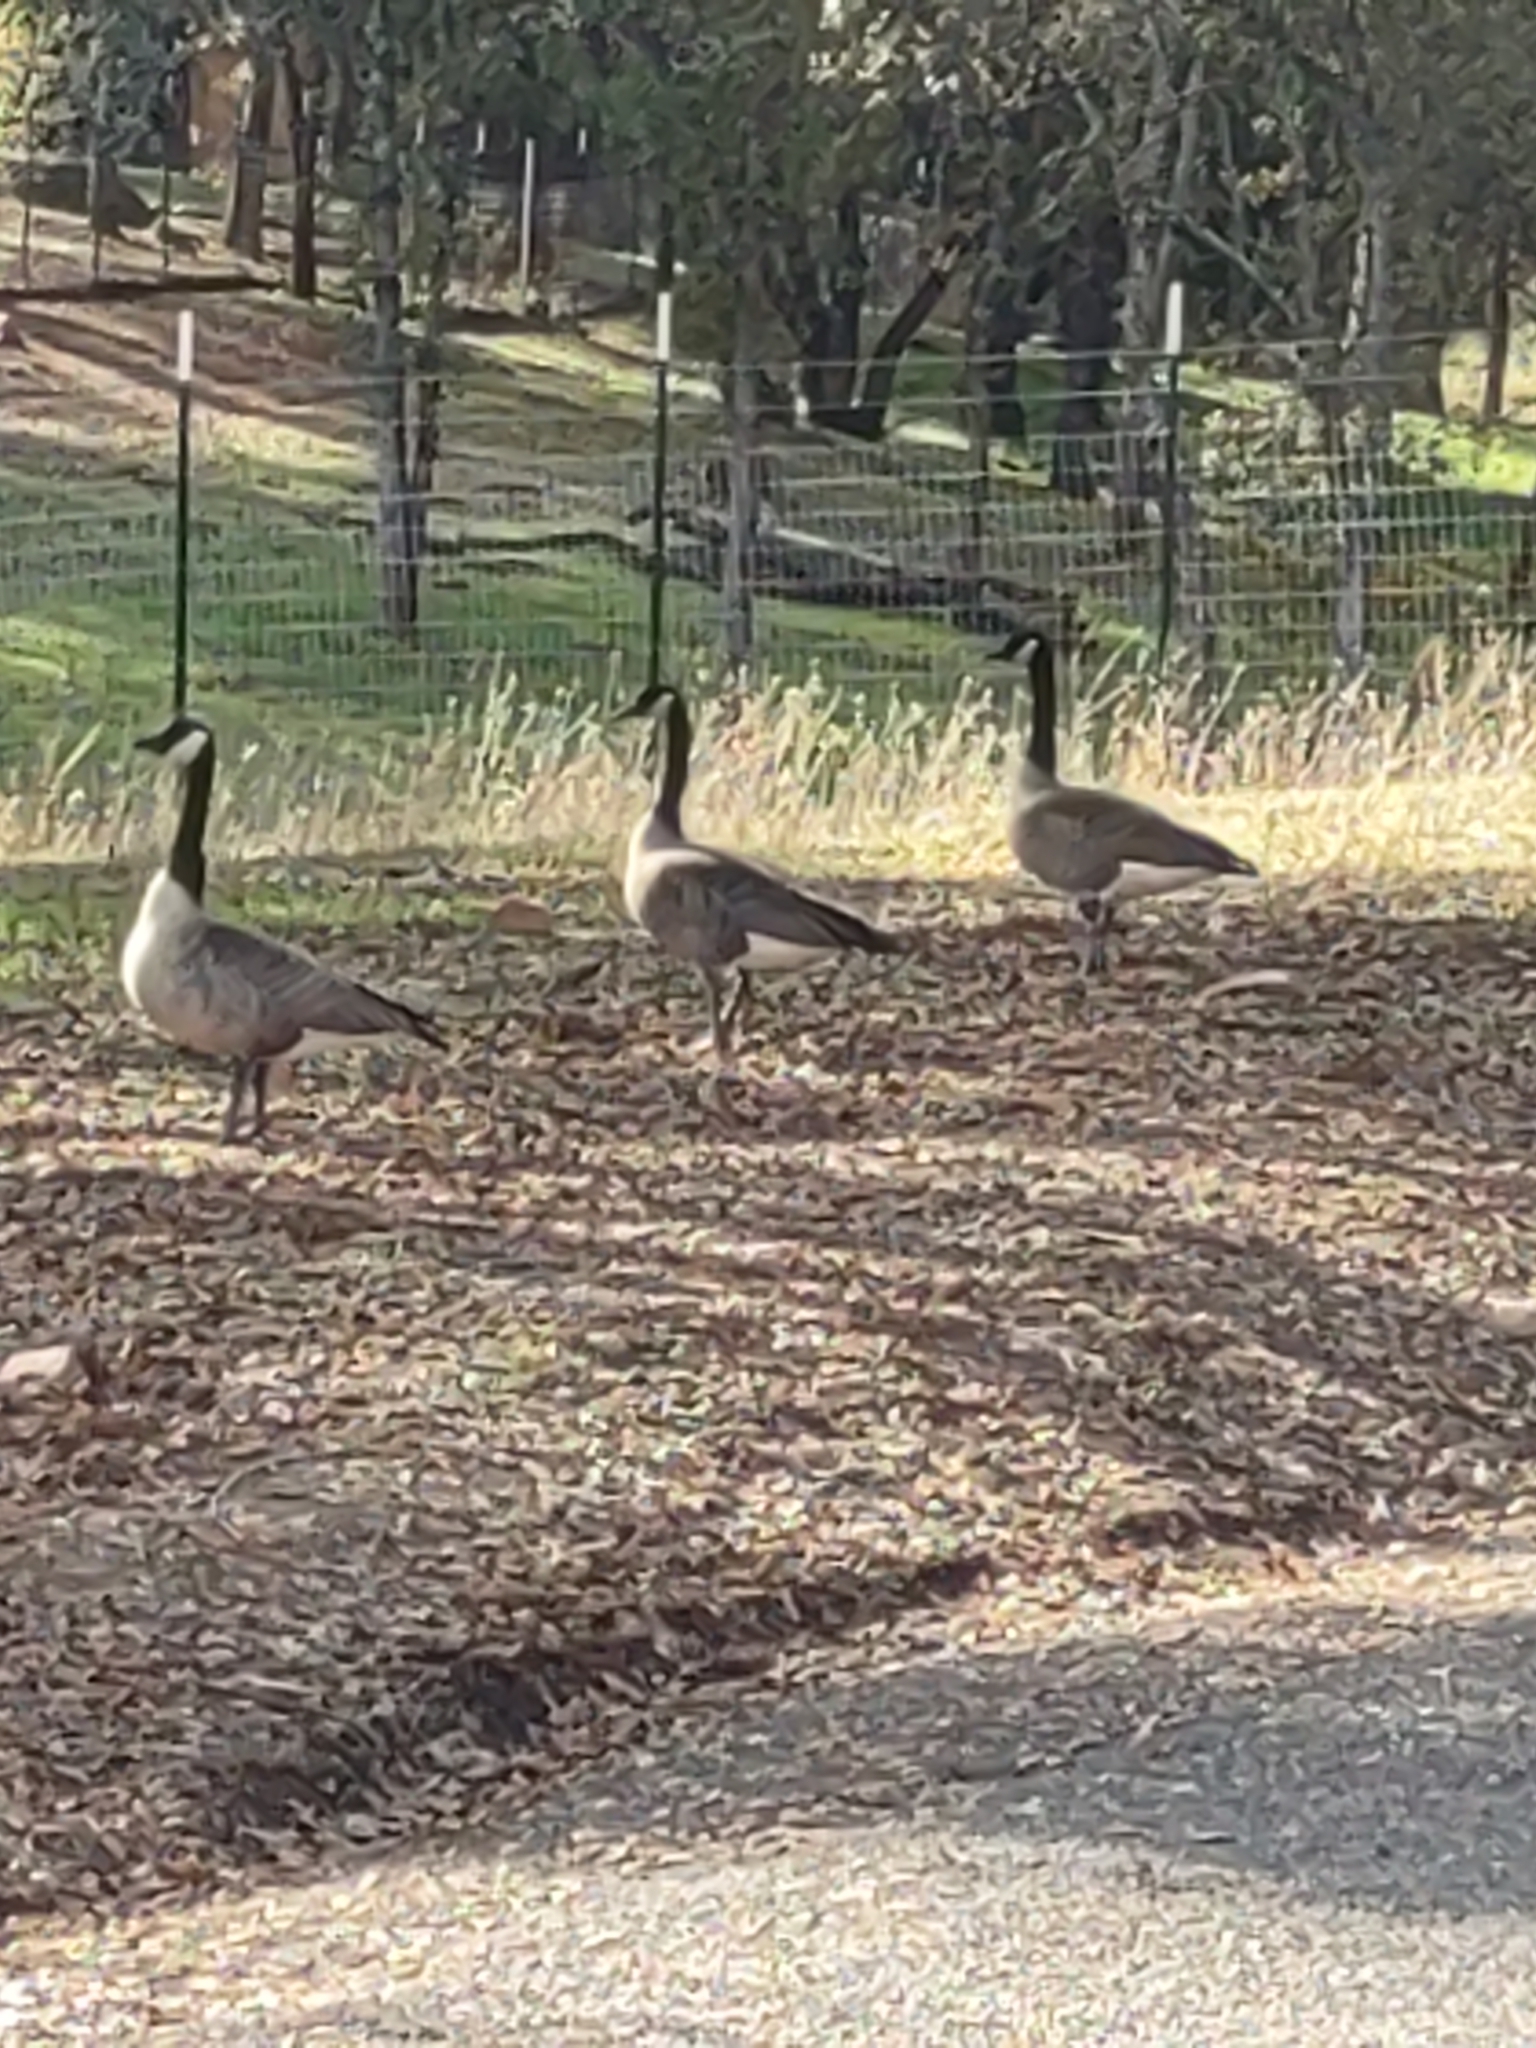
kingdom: Animalia
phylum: Chordata
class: Aves
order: Anseriformes
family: Anatidae
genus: Branta
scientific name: Branta canadensis
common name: Canada goose
